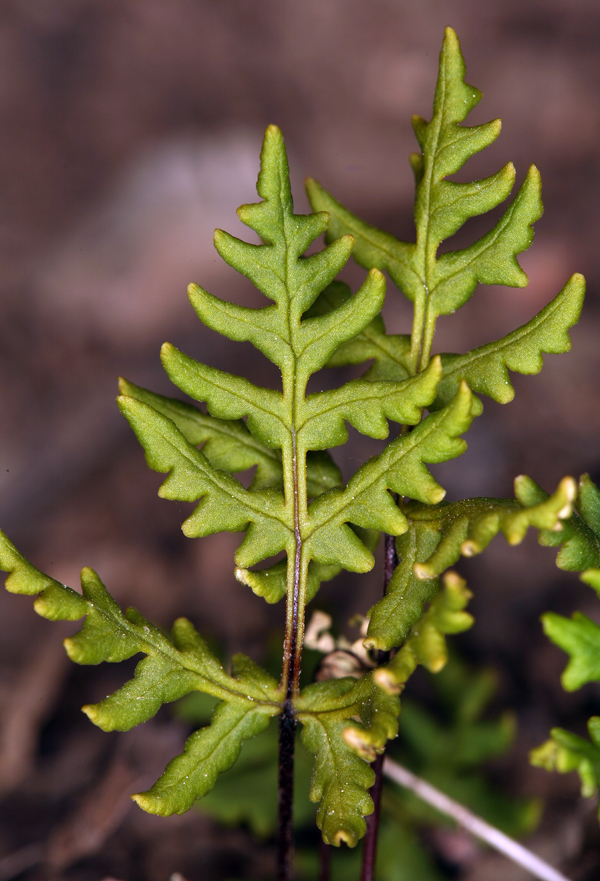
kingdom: Plantae
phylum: Tracheophyta
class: Polypodiopsida
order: Polypodiales
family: Pteridaceae
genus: Pentagramma
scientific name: Pentagramma triangularis
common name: Gold fern
